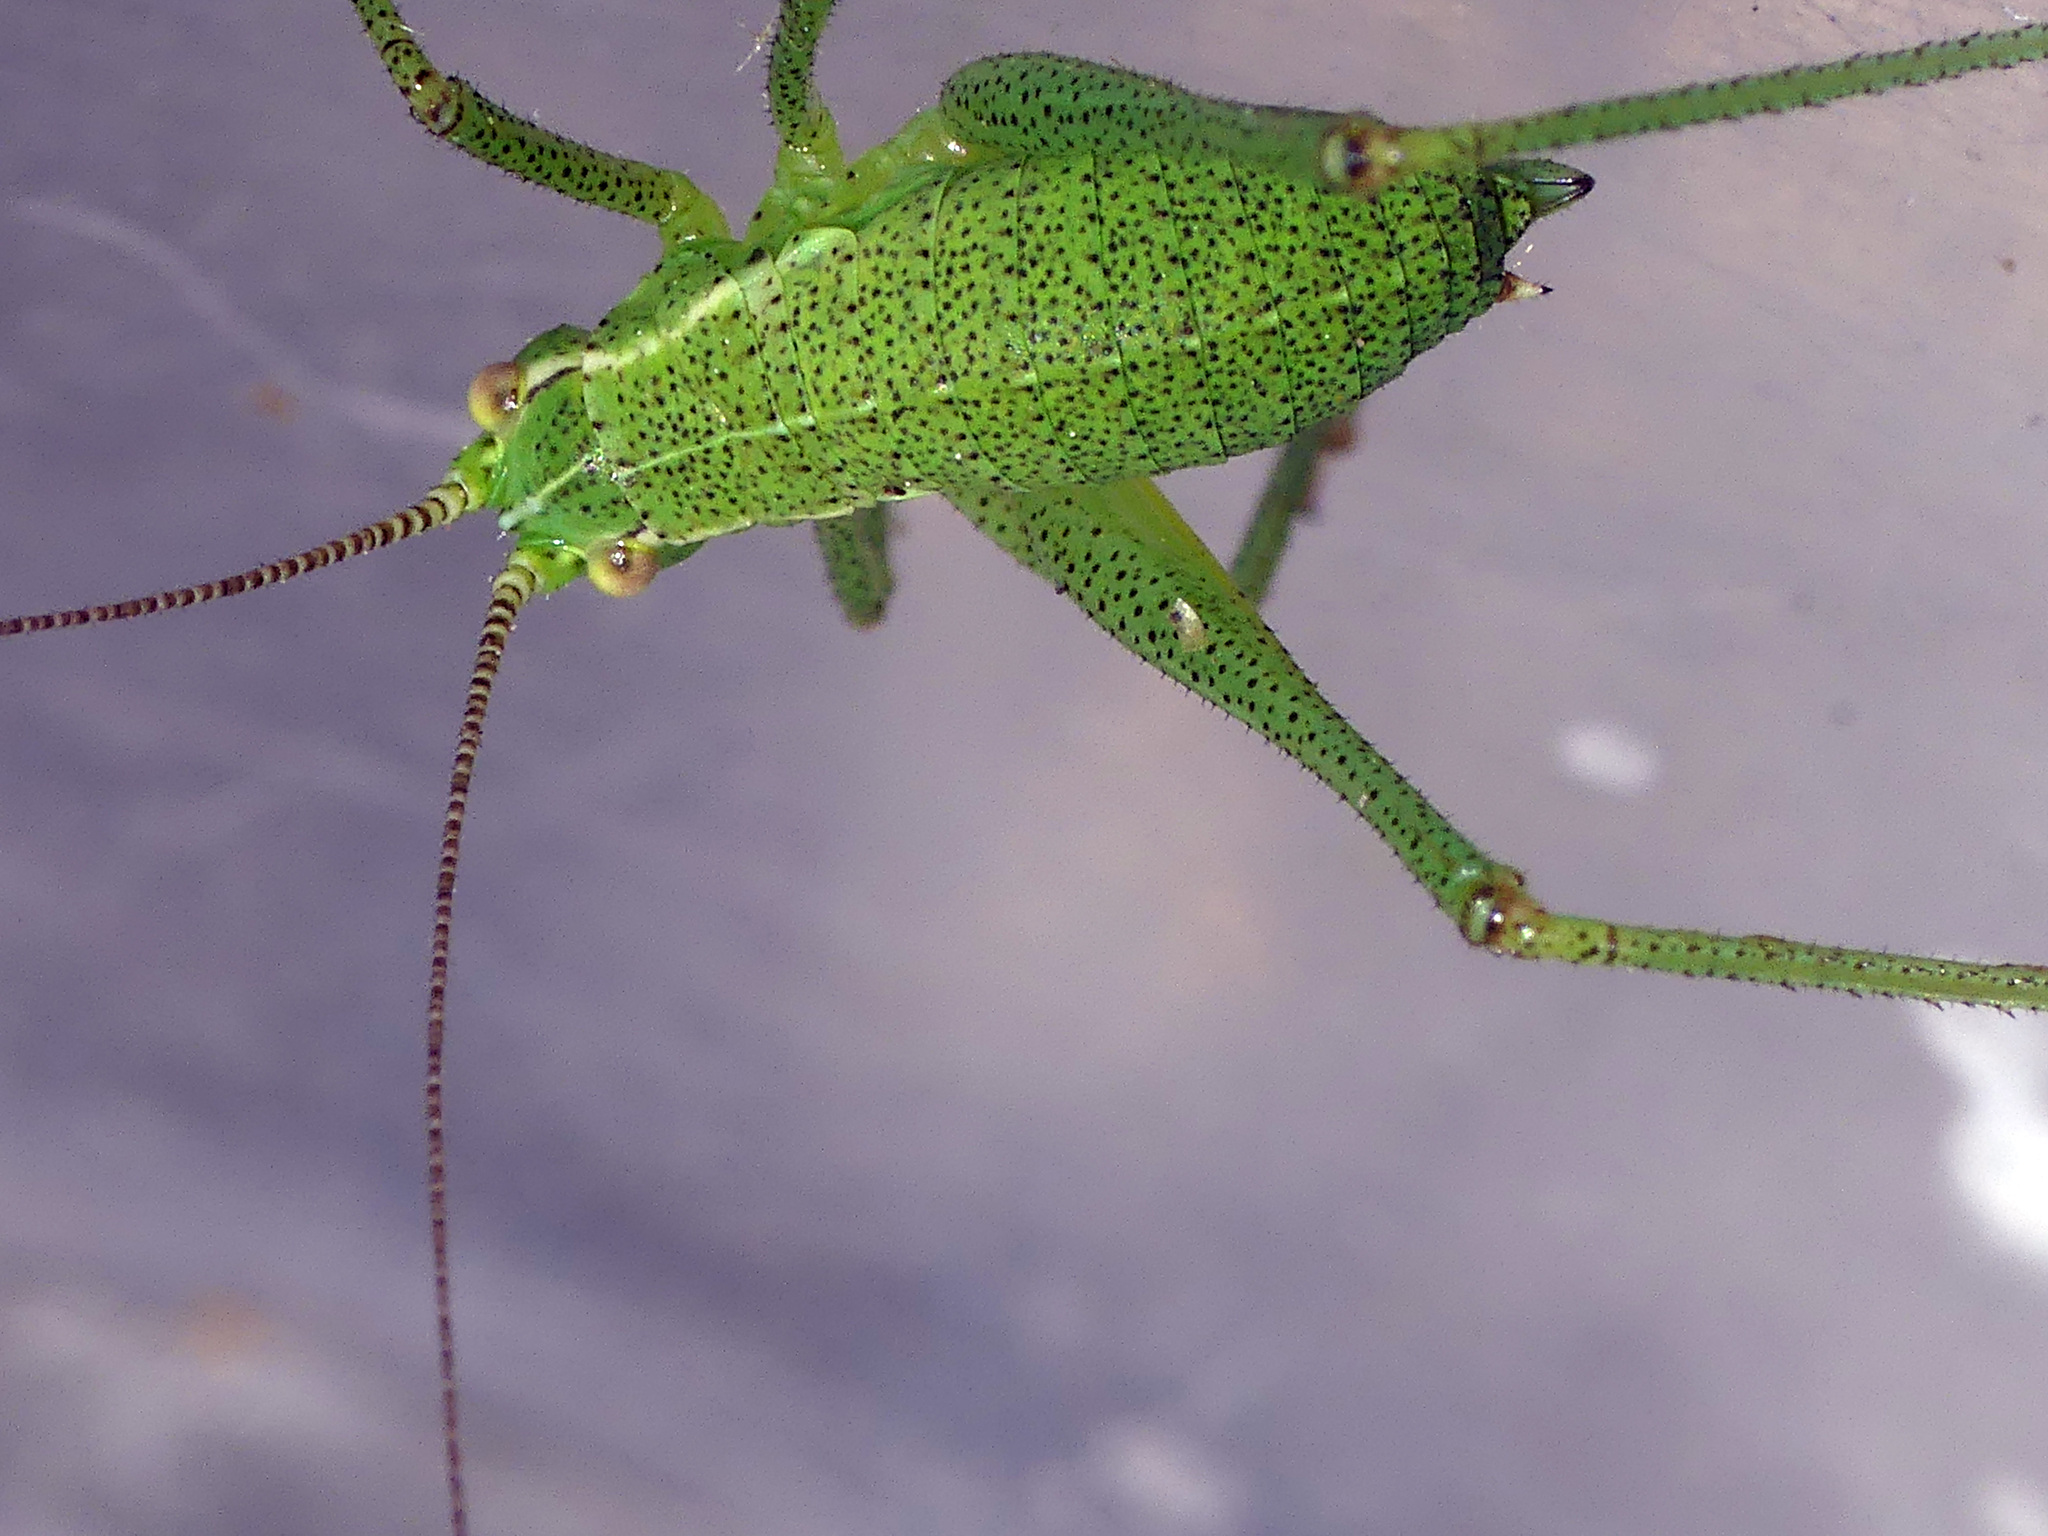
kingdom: Animalia
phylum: Arthropoda
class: Insecta
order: Orthoptera
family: Tettigoniidae
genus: Leptophyes
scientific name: Leptophyes punctatissima
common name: Speckled bush-cricket
